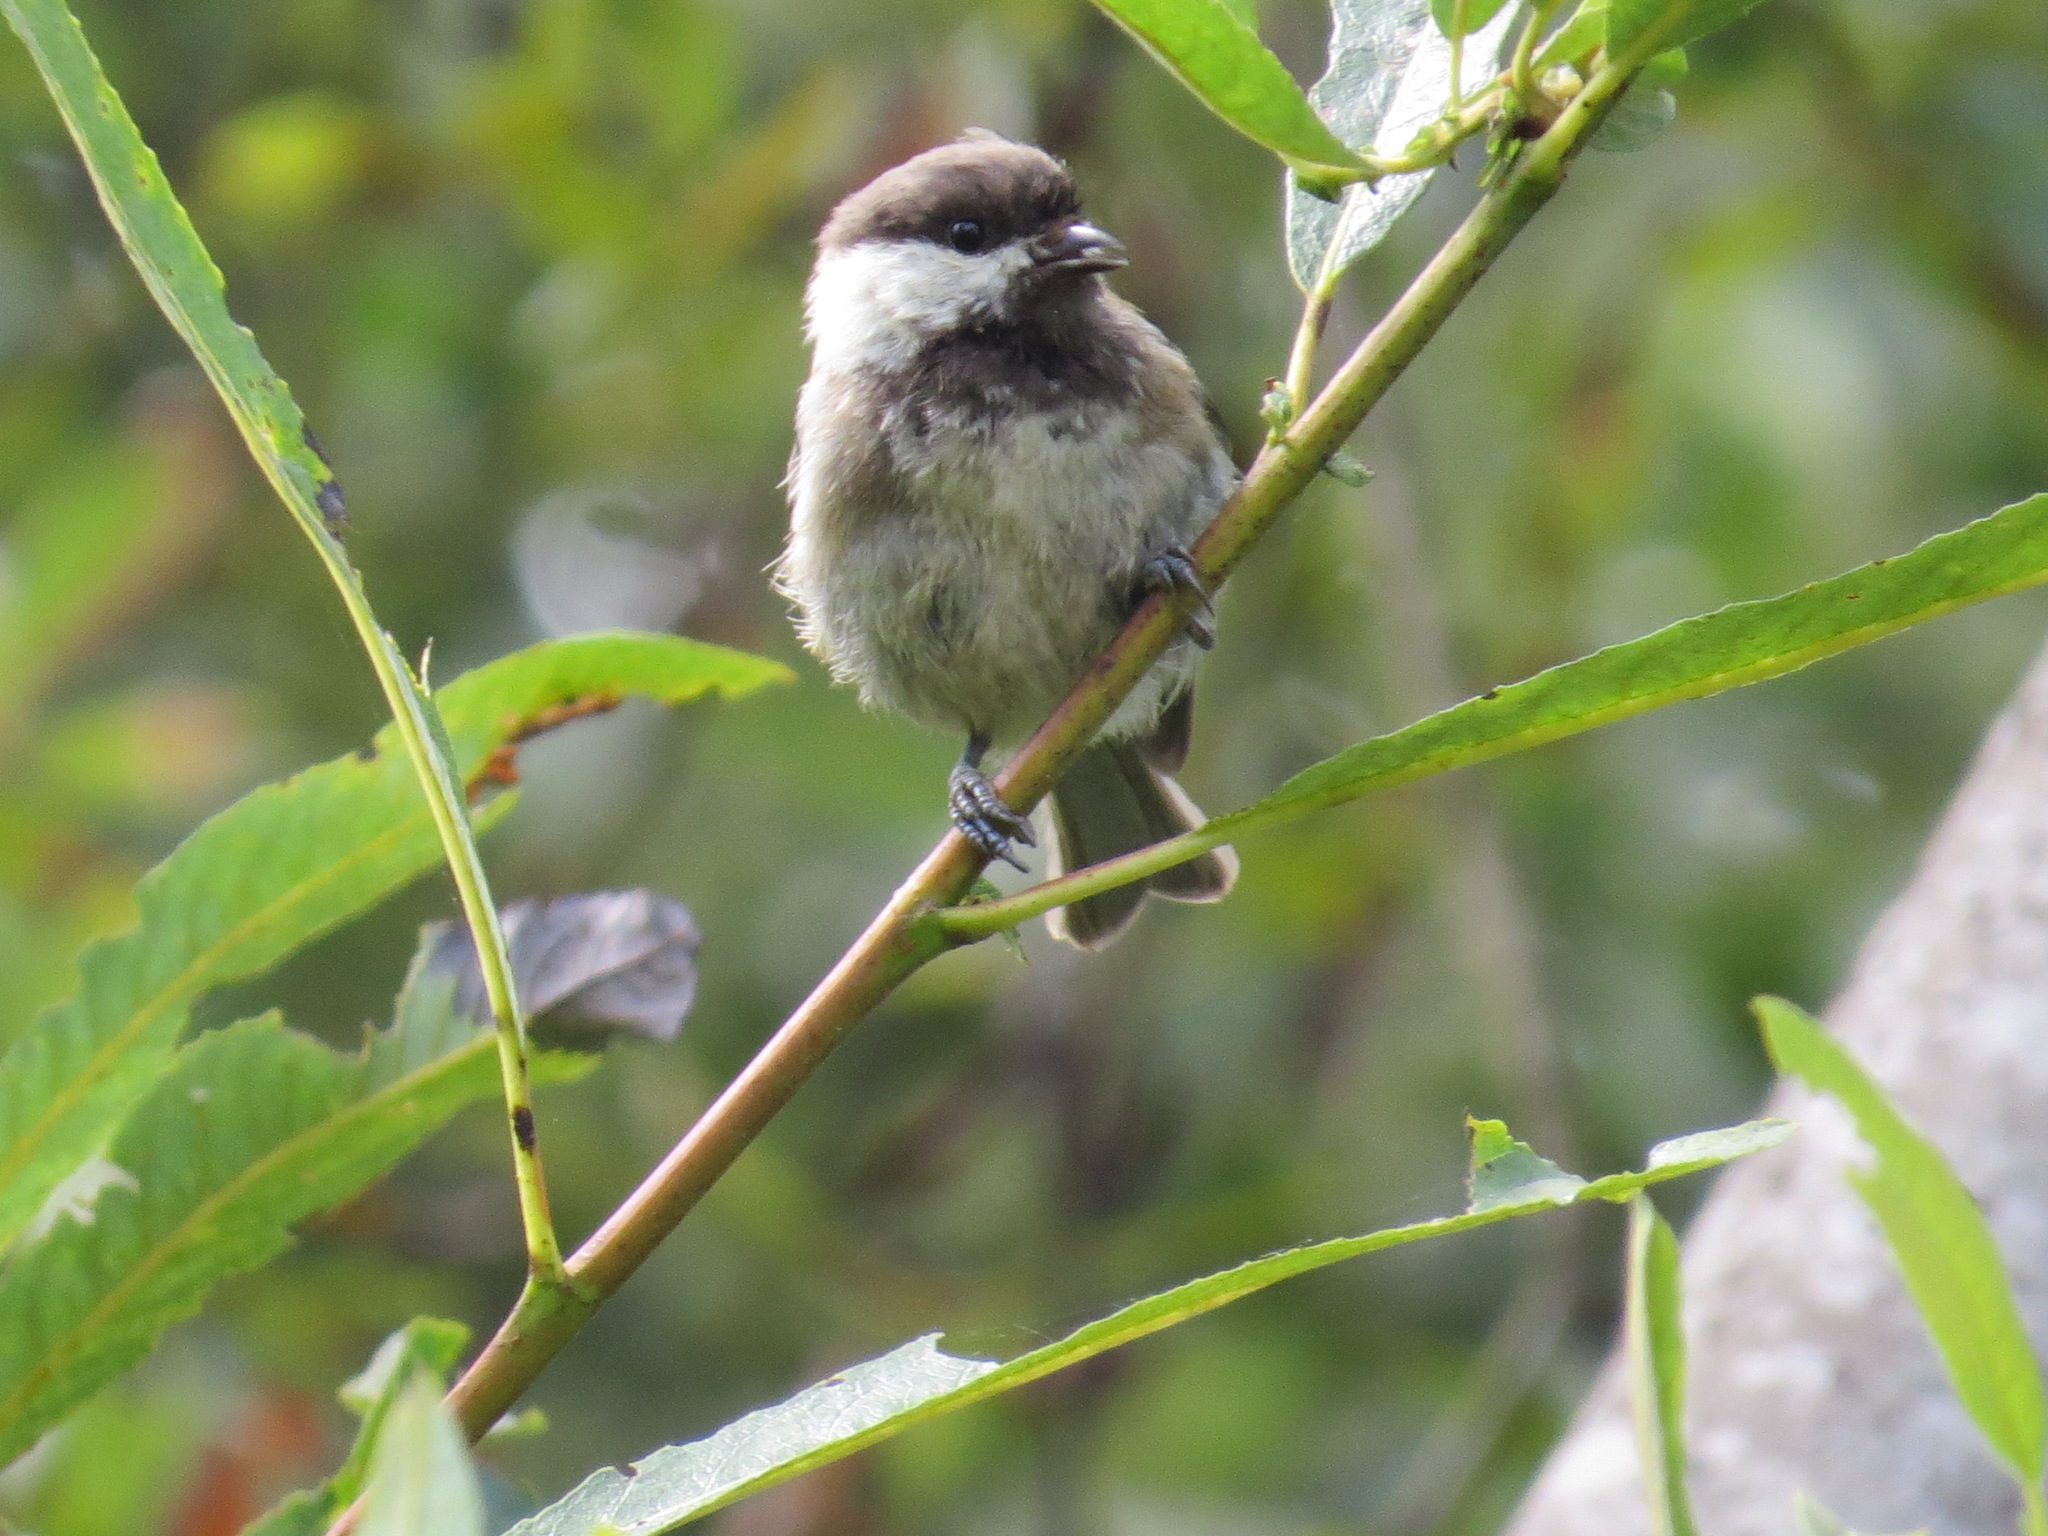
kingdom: Animalia
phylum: Chordata
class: Aves
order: Passeriformes
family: Paridae
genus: Poecile
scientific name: Poecile rufescens
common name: Chestnut-backed chickadee
